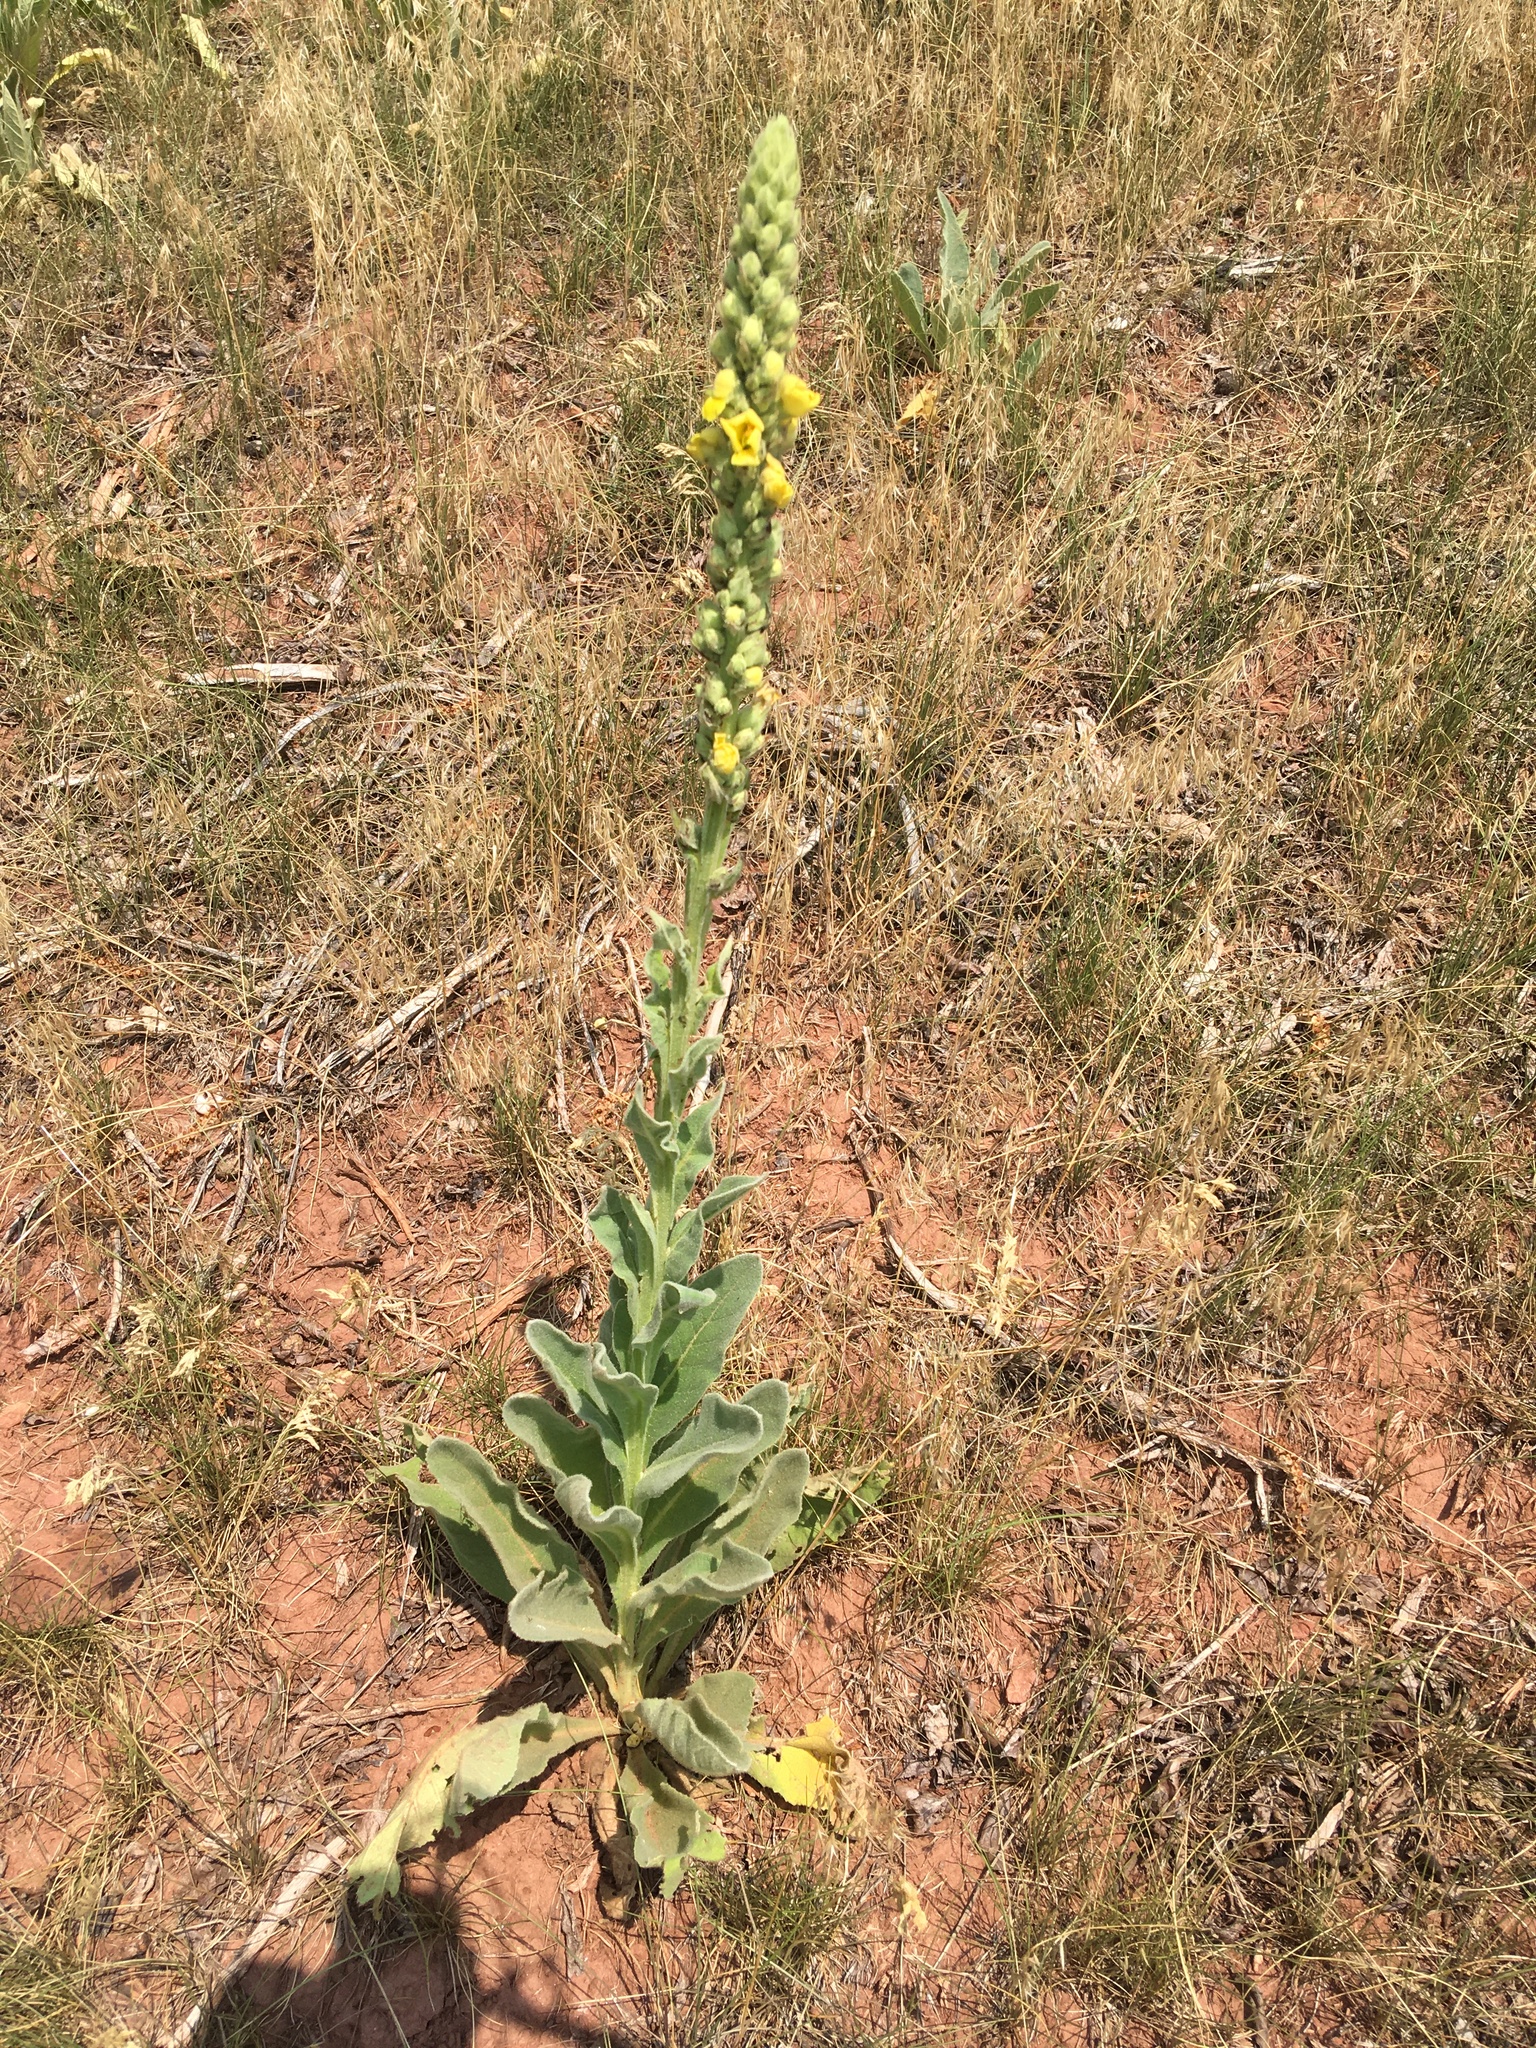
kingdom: Plantae
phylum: Tracheophyta
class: Magnoliopsida
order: Lamiales
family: Scrophulariaceae
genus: Verbascum
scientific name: Verbascum thapsus
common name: Common mullein
